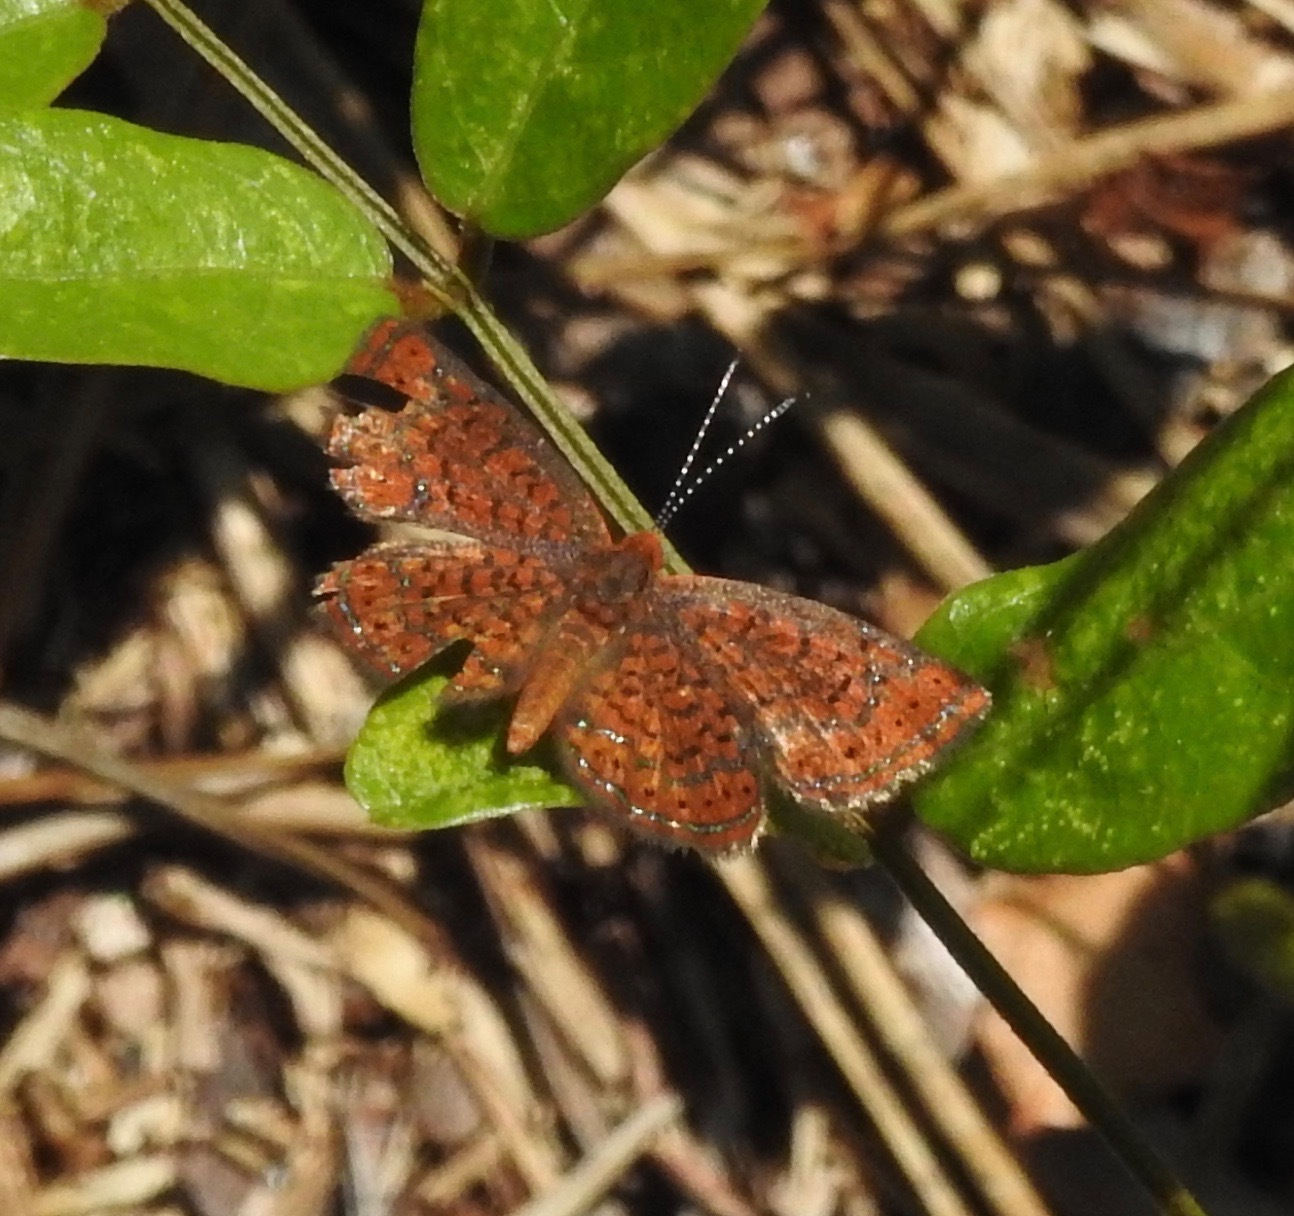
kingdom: Animalia
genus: Calephelis
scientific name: Calephelis virginiensis
